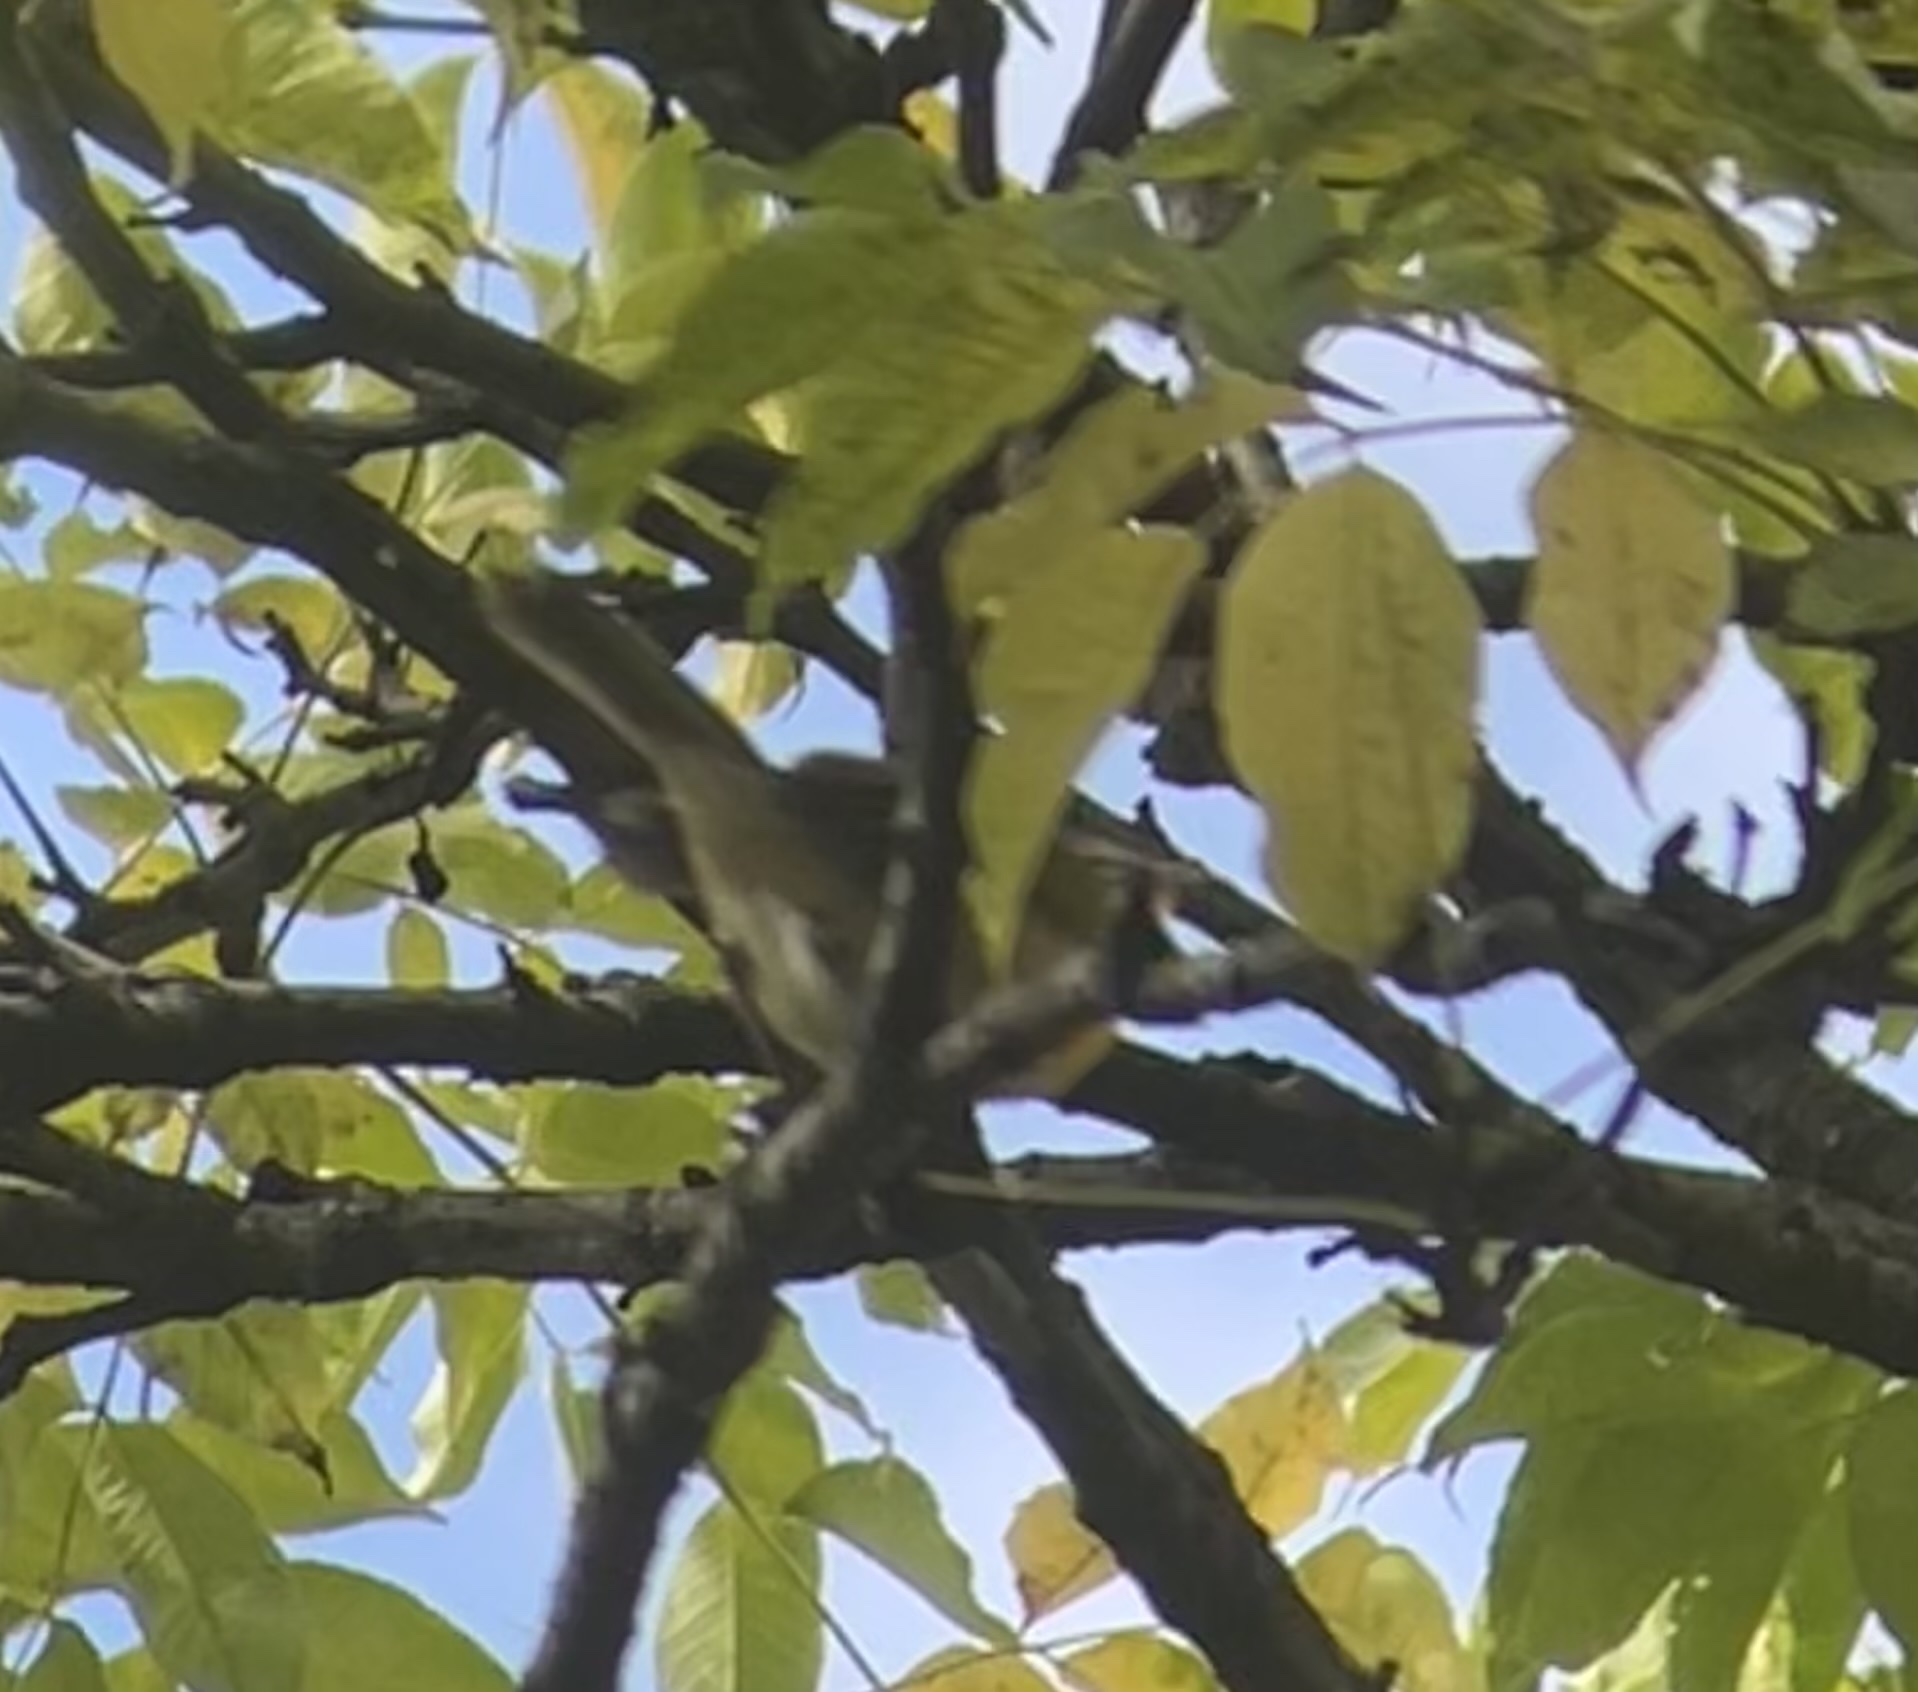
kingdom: Animalia
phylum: Chordata
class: Aves
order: Passeriformes
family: Parulidae
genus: Icteria
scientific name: Icteria virens
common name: Yellow-breasted chat
